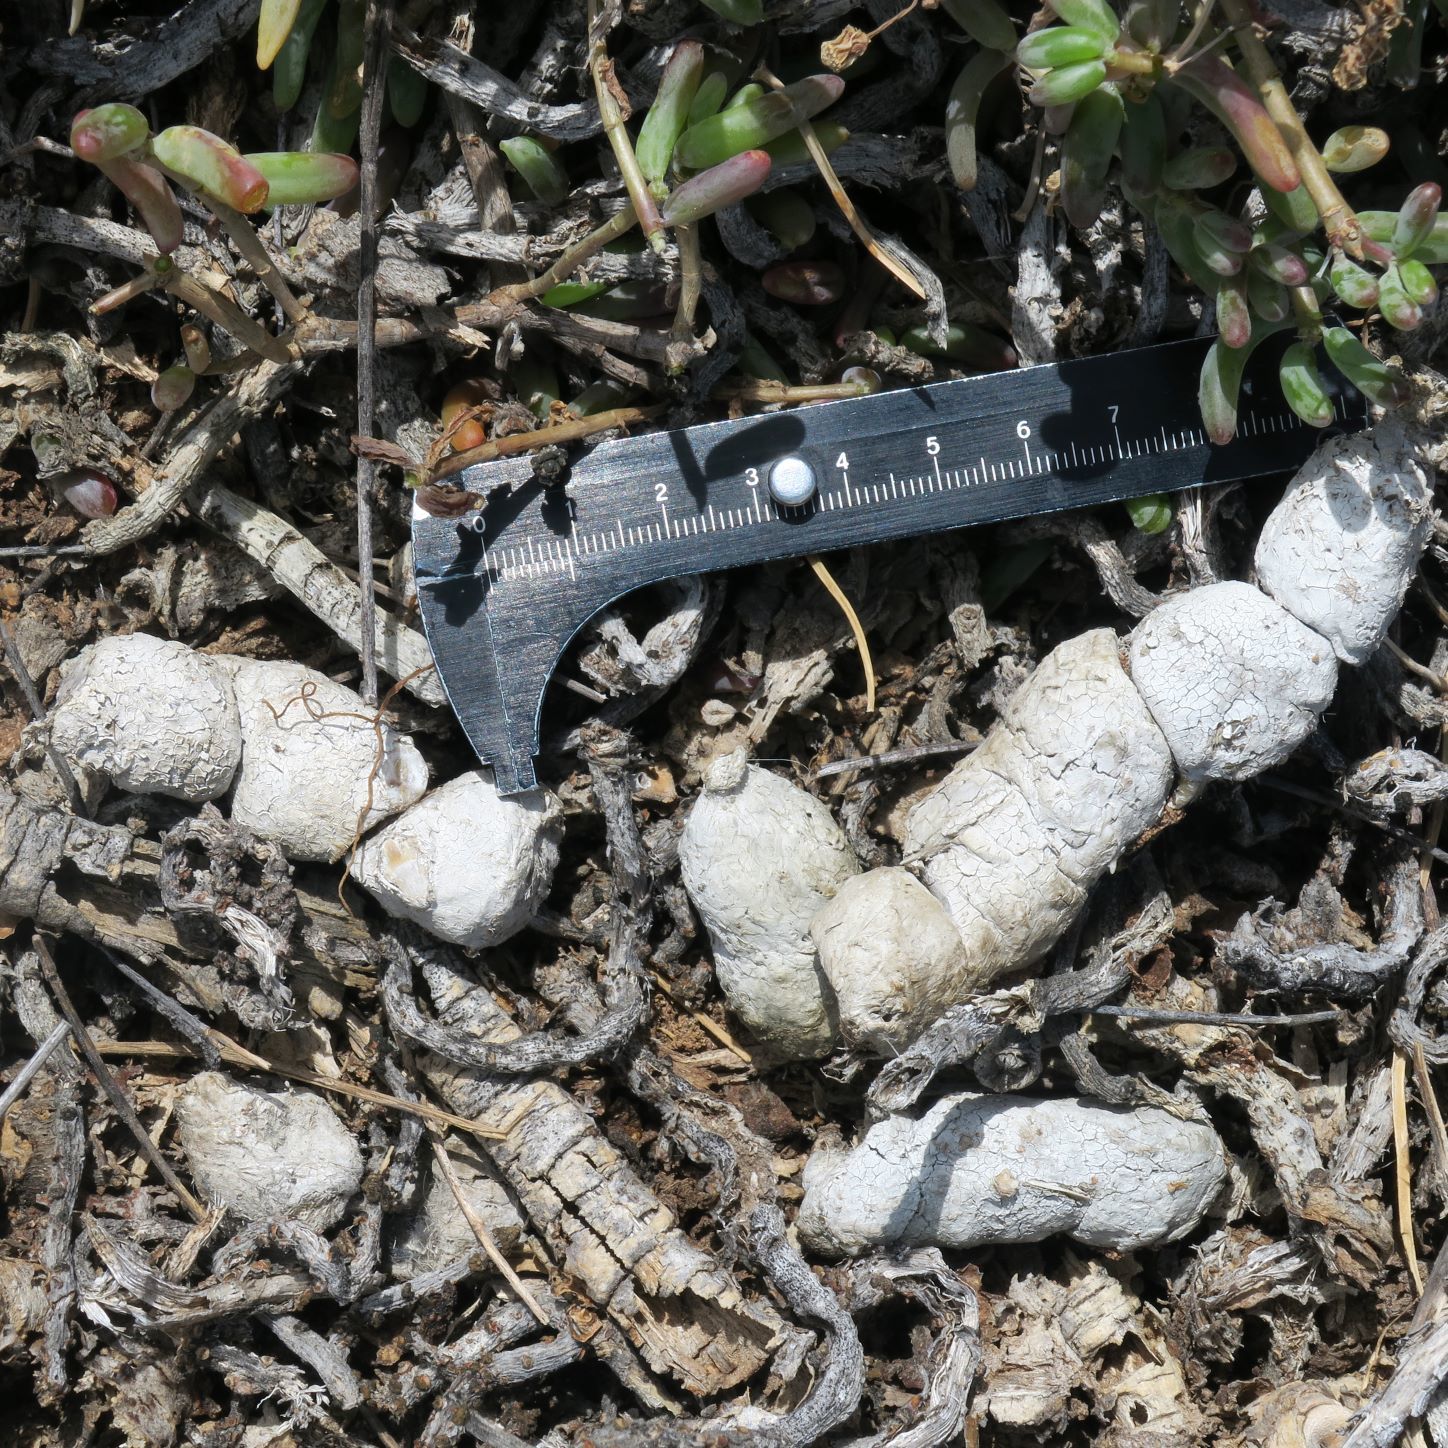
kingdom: Animalia
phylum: Chordata
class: Mammalia
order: Carnivora
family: Felidae
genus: Caracal
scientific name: Caracal caracal
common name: Caracal
